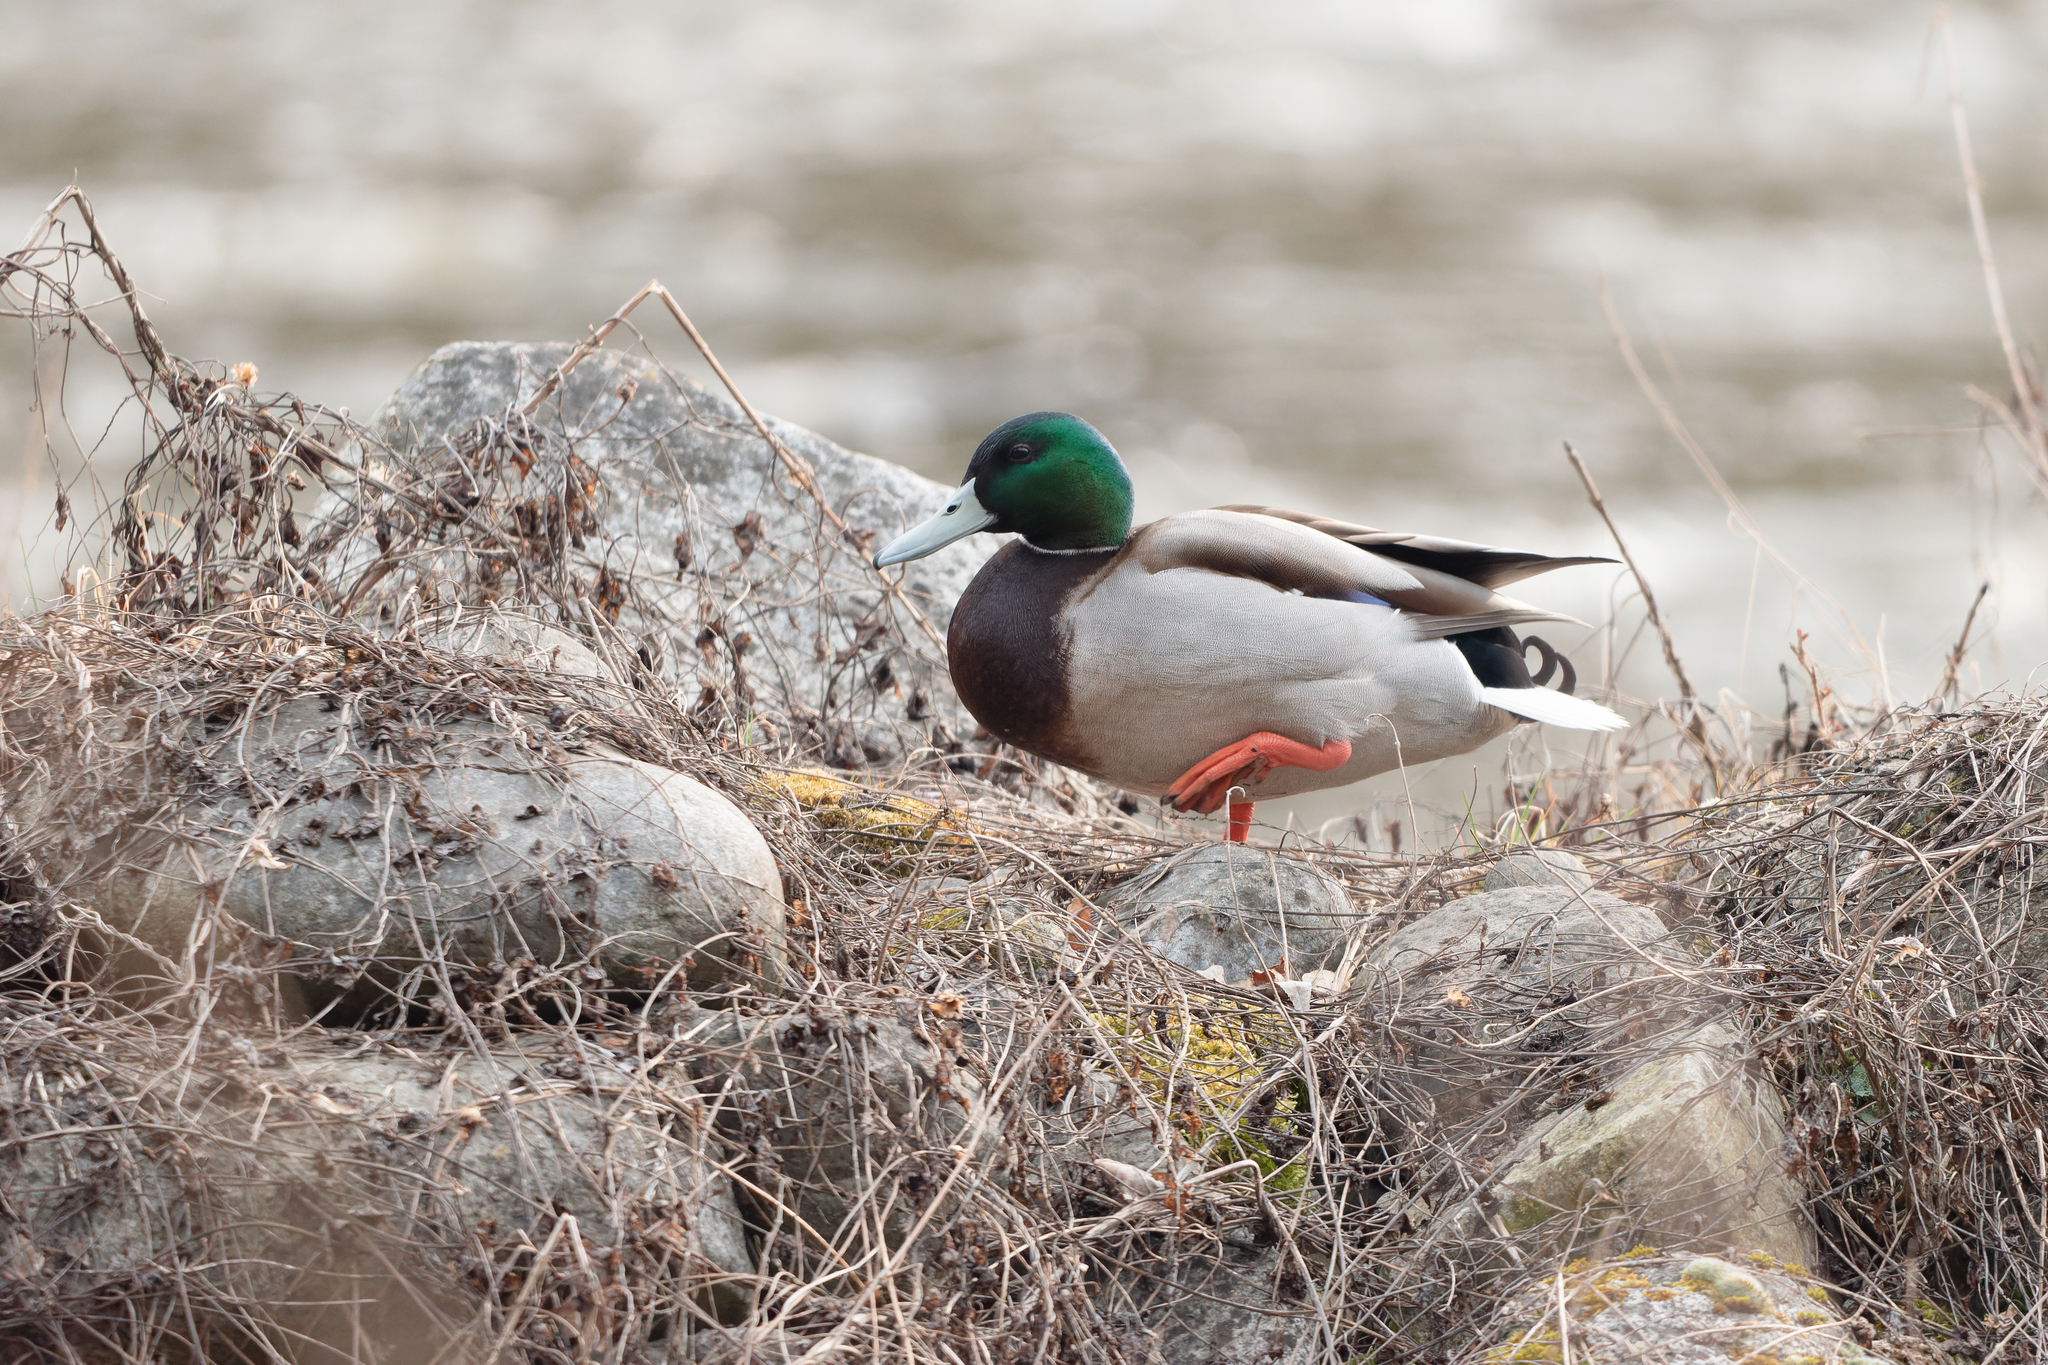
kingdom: Animalia
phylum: Chordata
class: Aves
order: Anseriformes
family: Anatidae
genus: Anas
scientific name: Anas platyrhynchos
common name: Mallard
